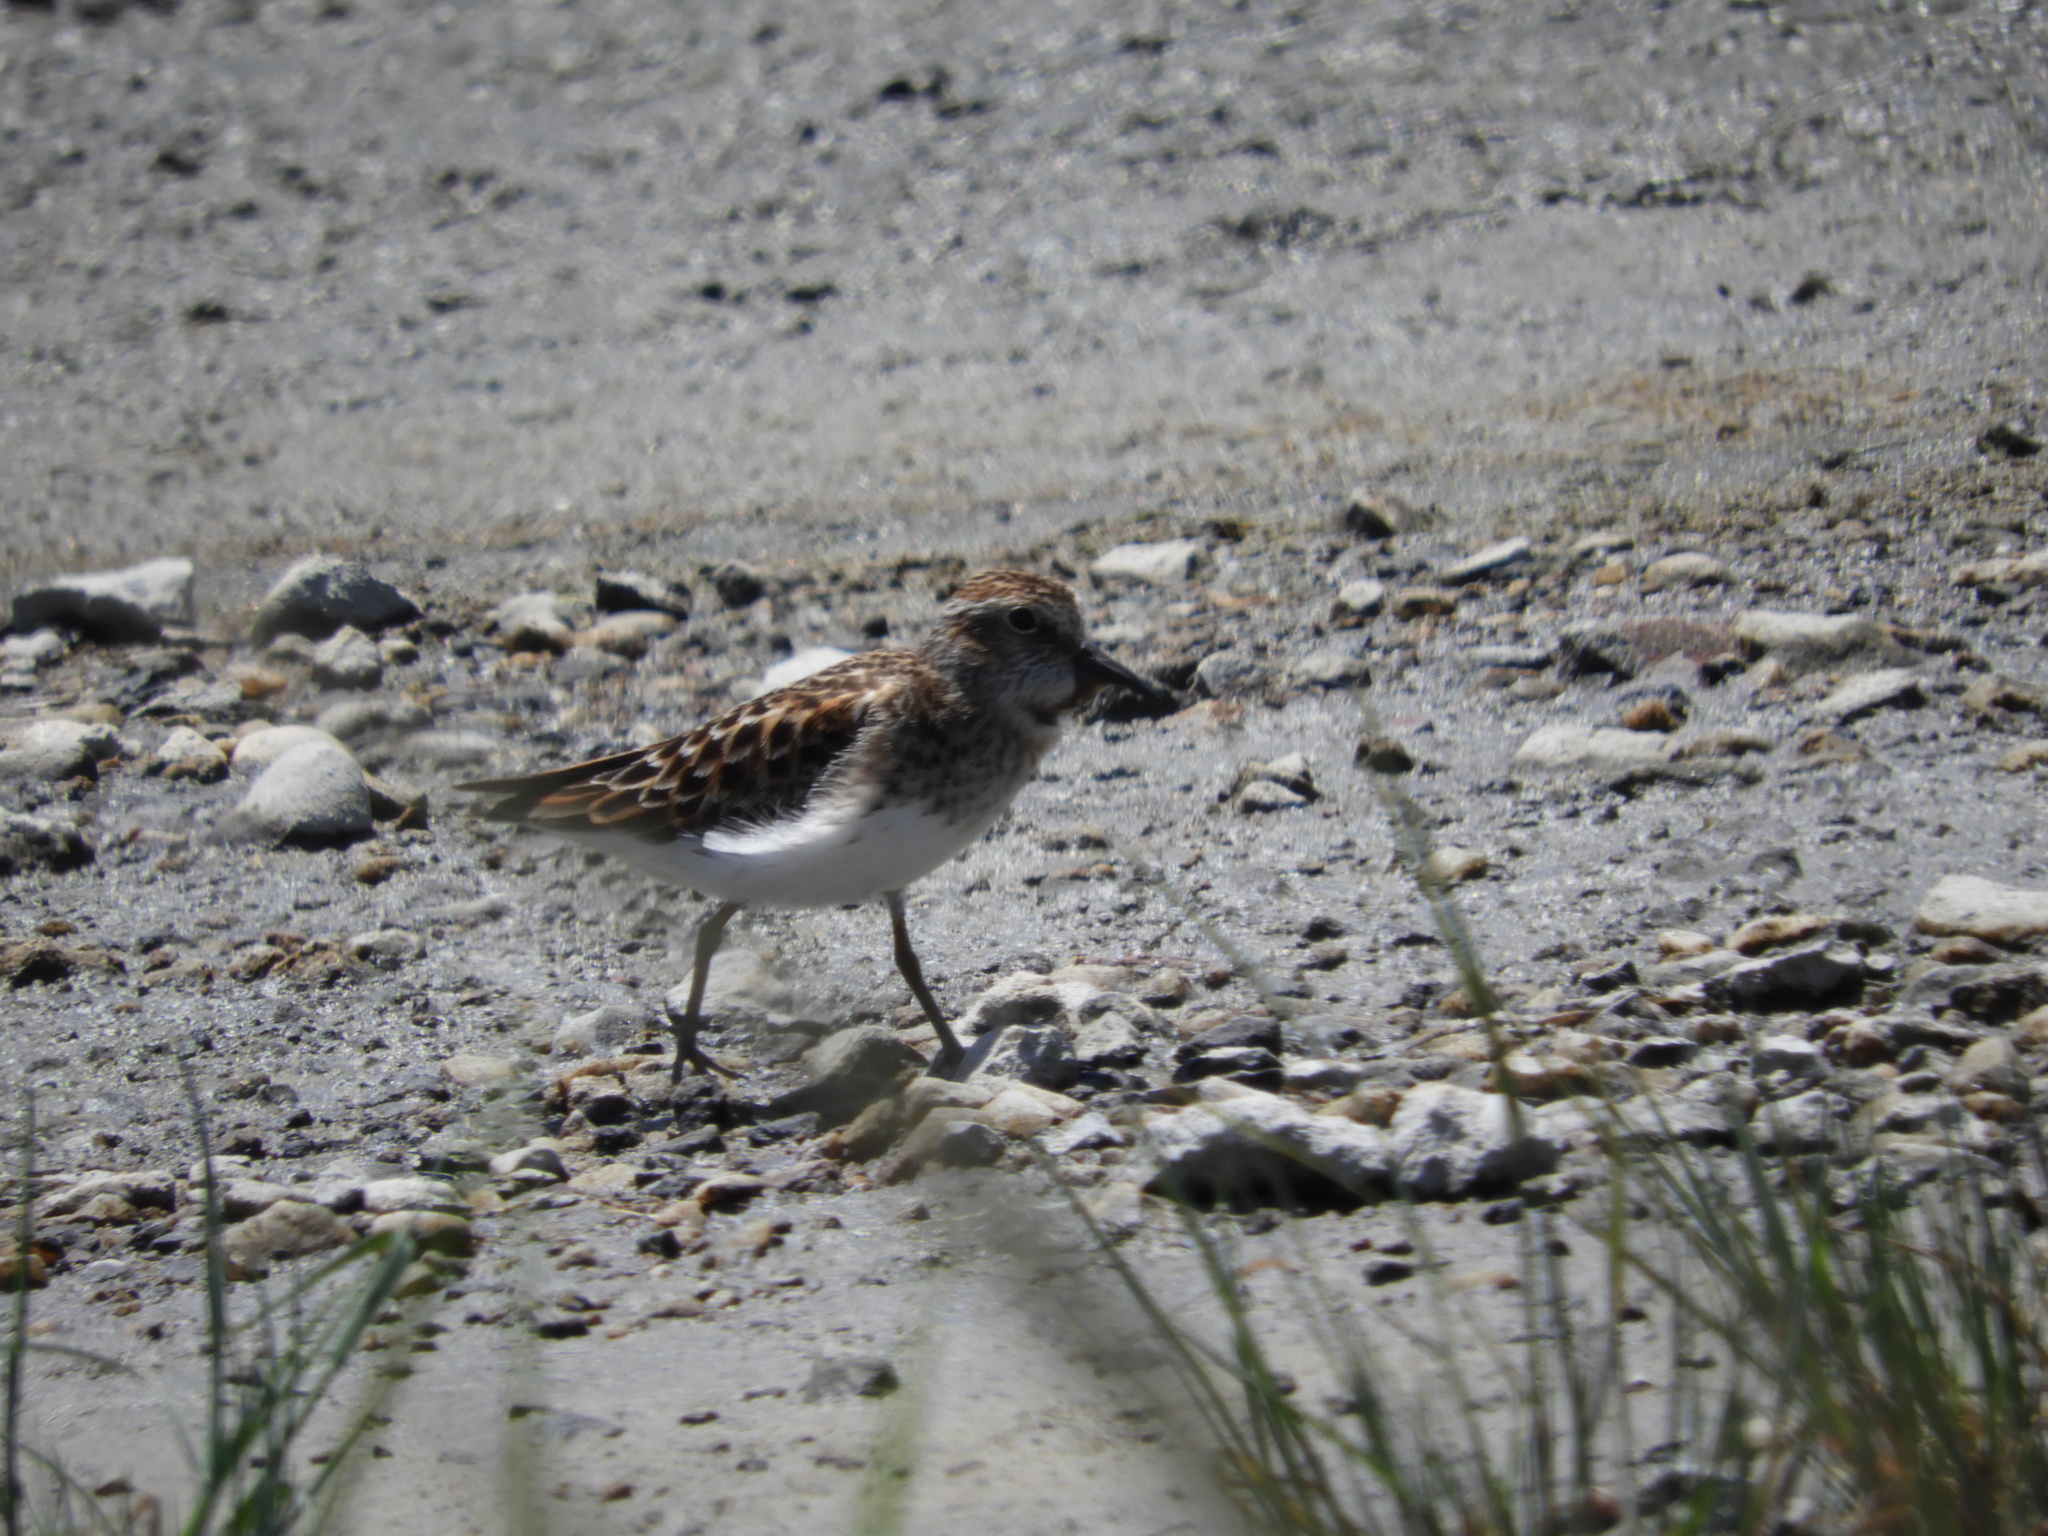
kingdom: Animalia
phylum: Chordata
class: Aves
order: Charadriiformes
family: Scolopacidae
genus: Calidris
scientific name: Calidris minutilla
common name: Least sandpiper
